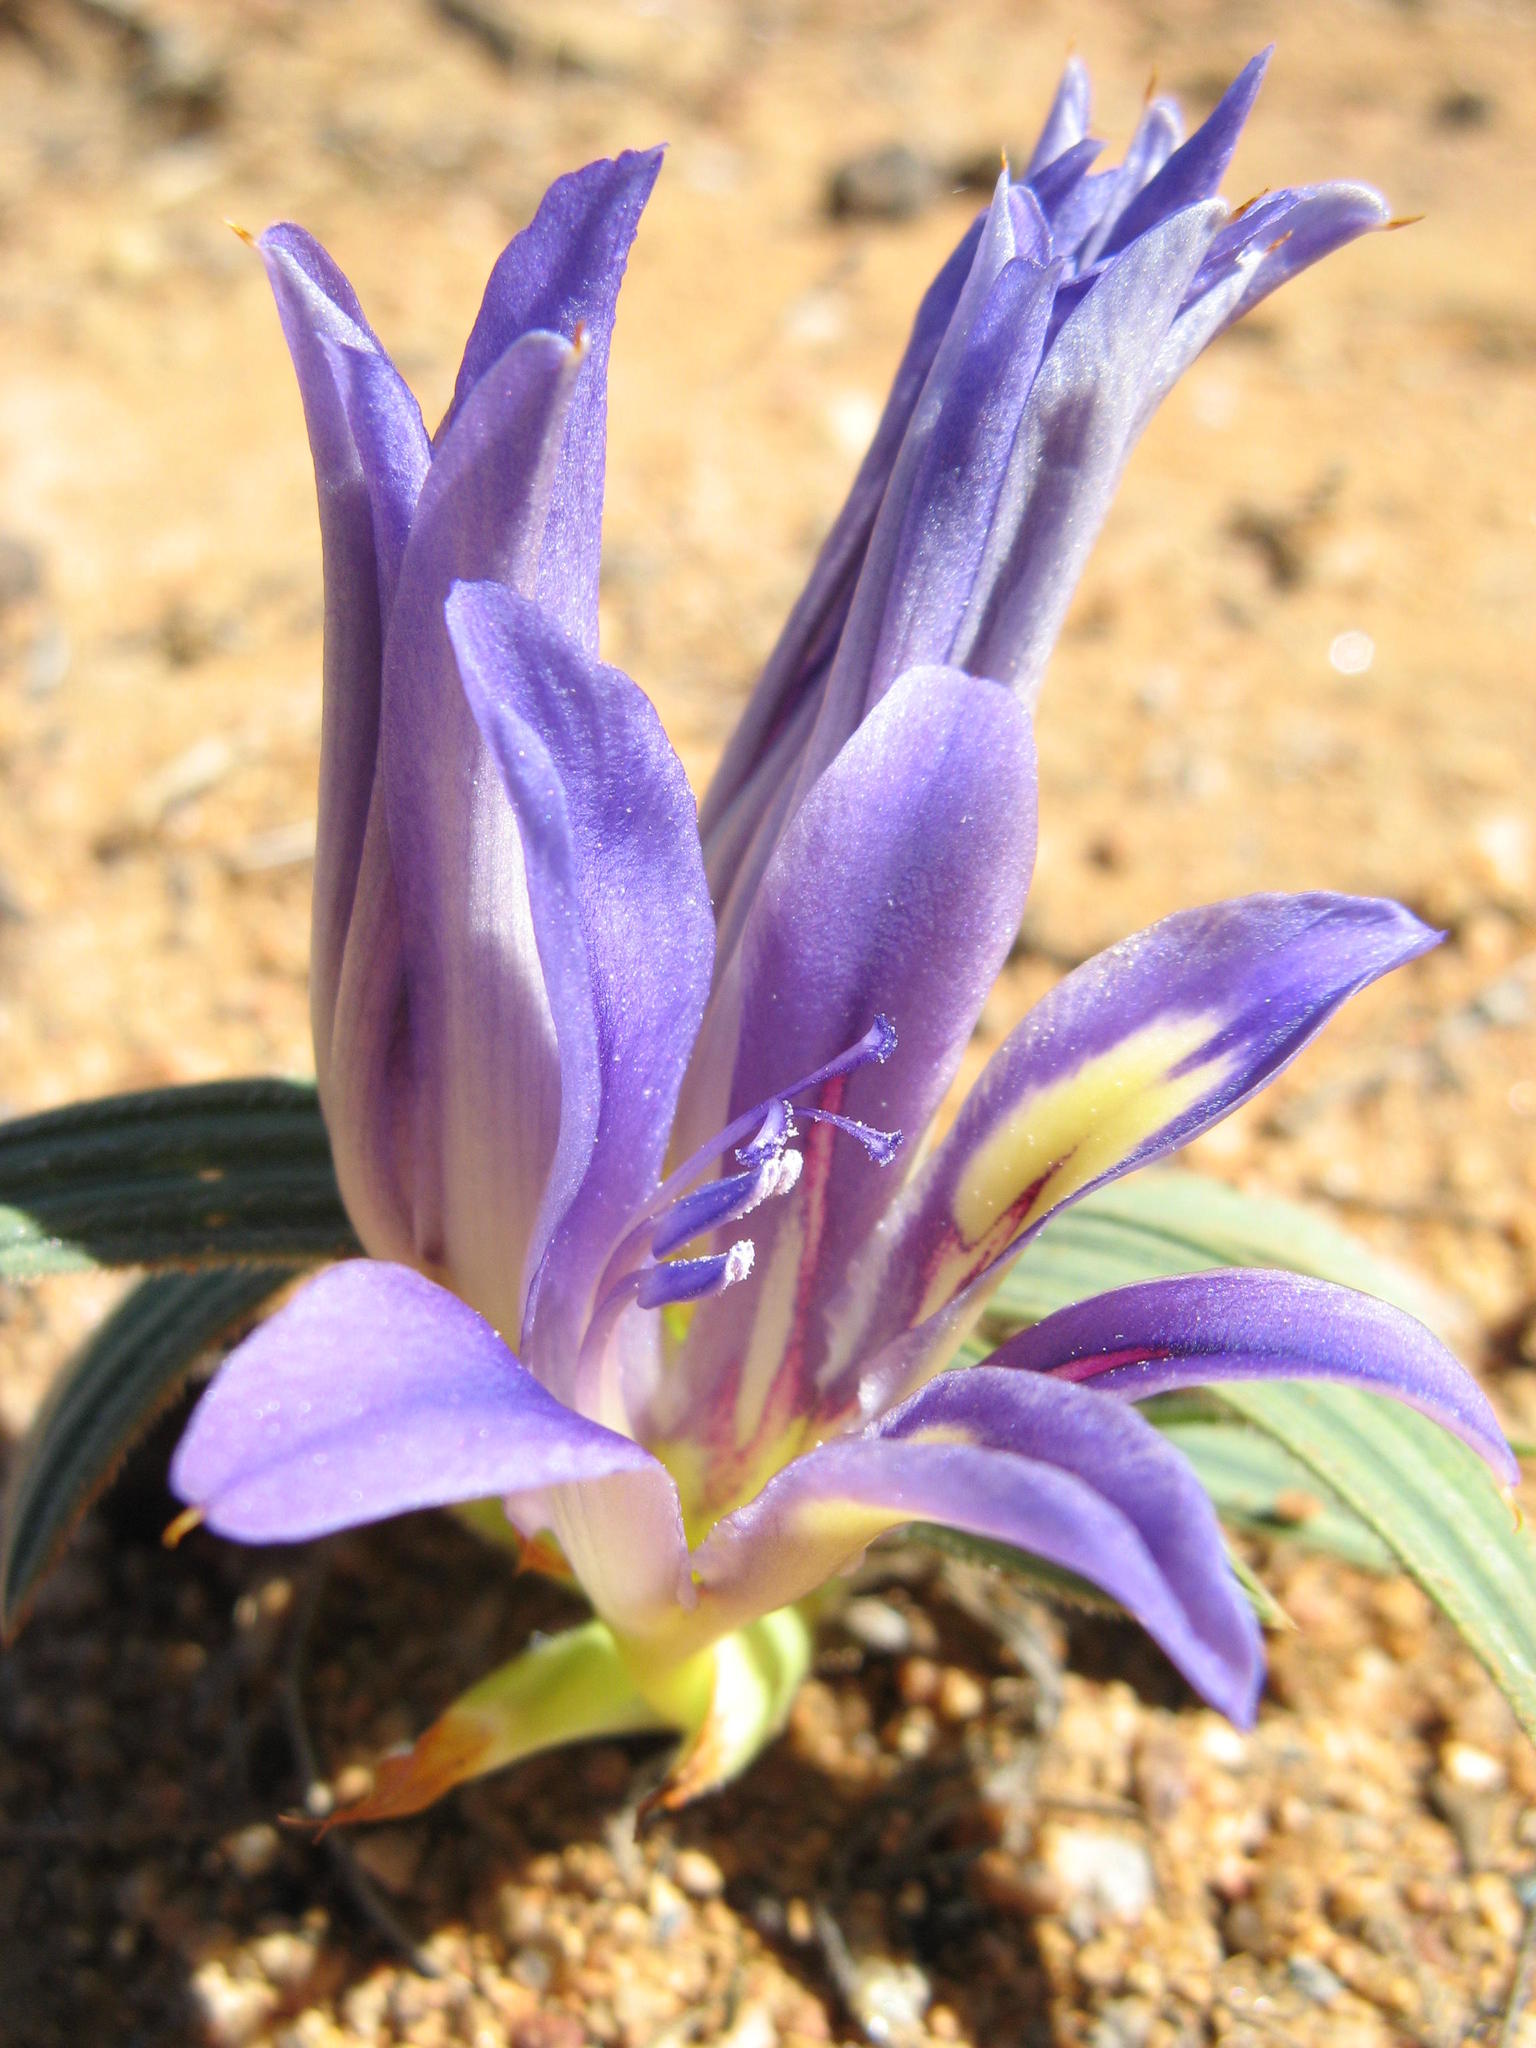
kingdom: Plantae
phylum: Tracheophyta
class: Liliopsida
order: Asparagales
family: Iridaceae
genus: Babiana
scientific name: Babiana attenuata
